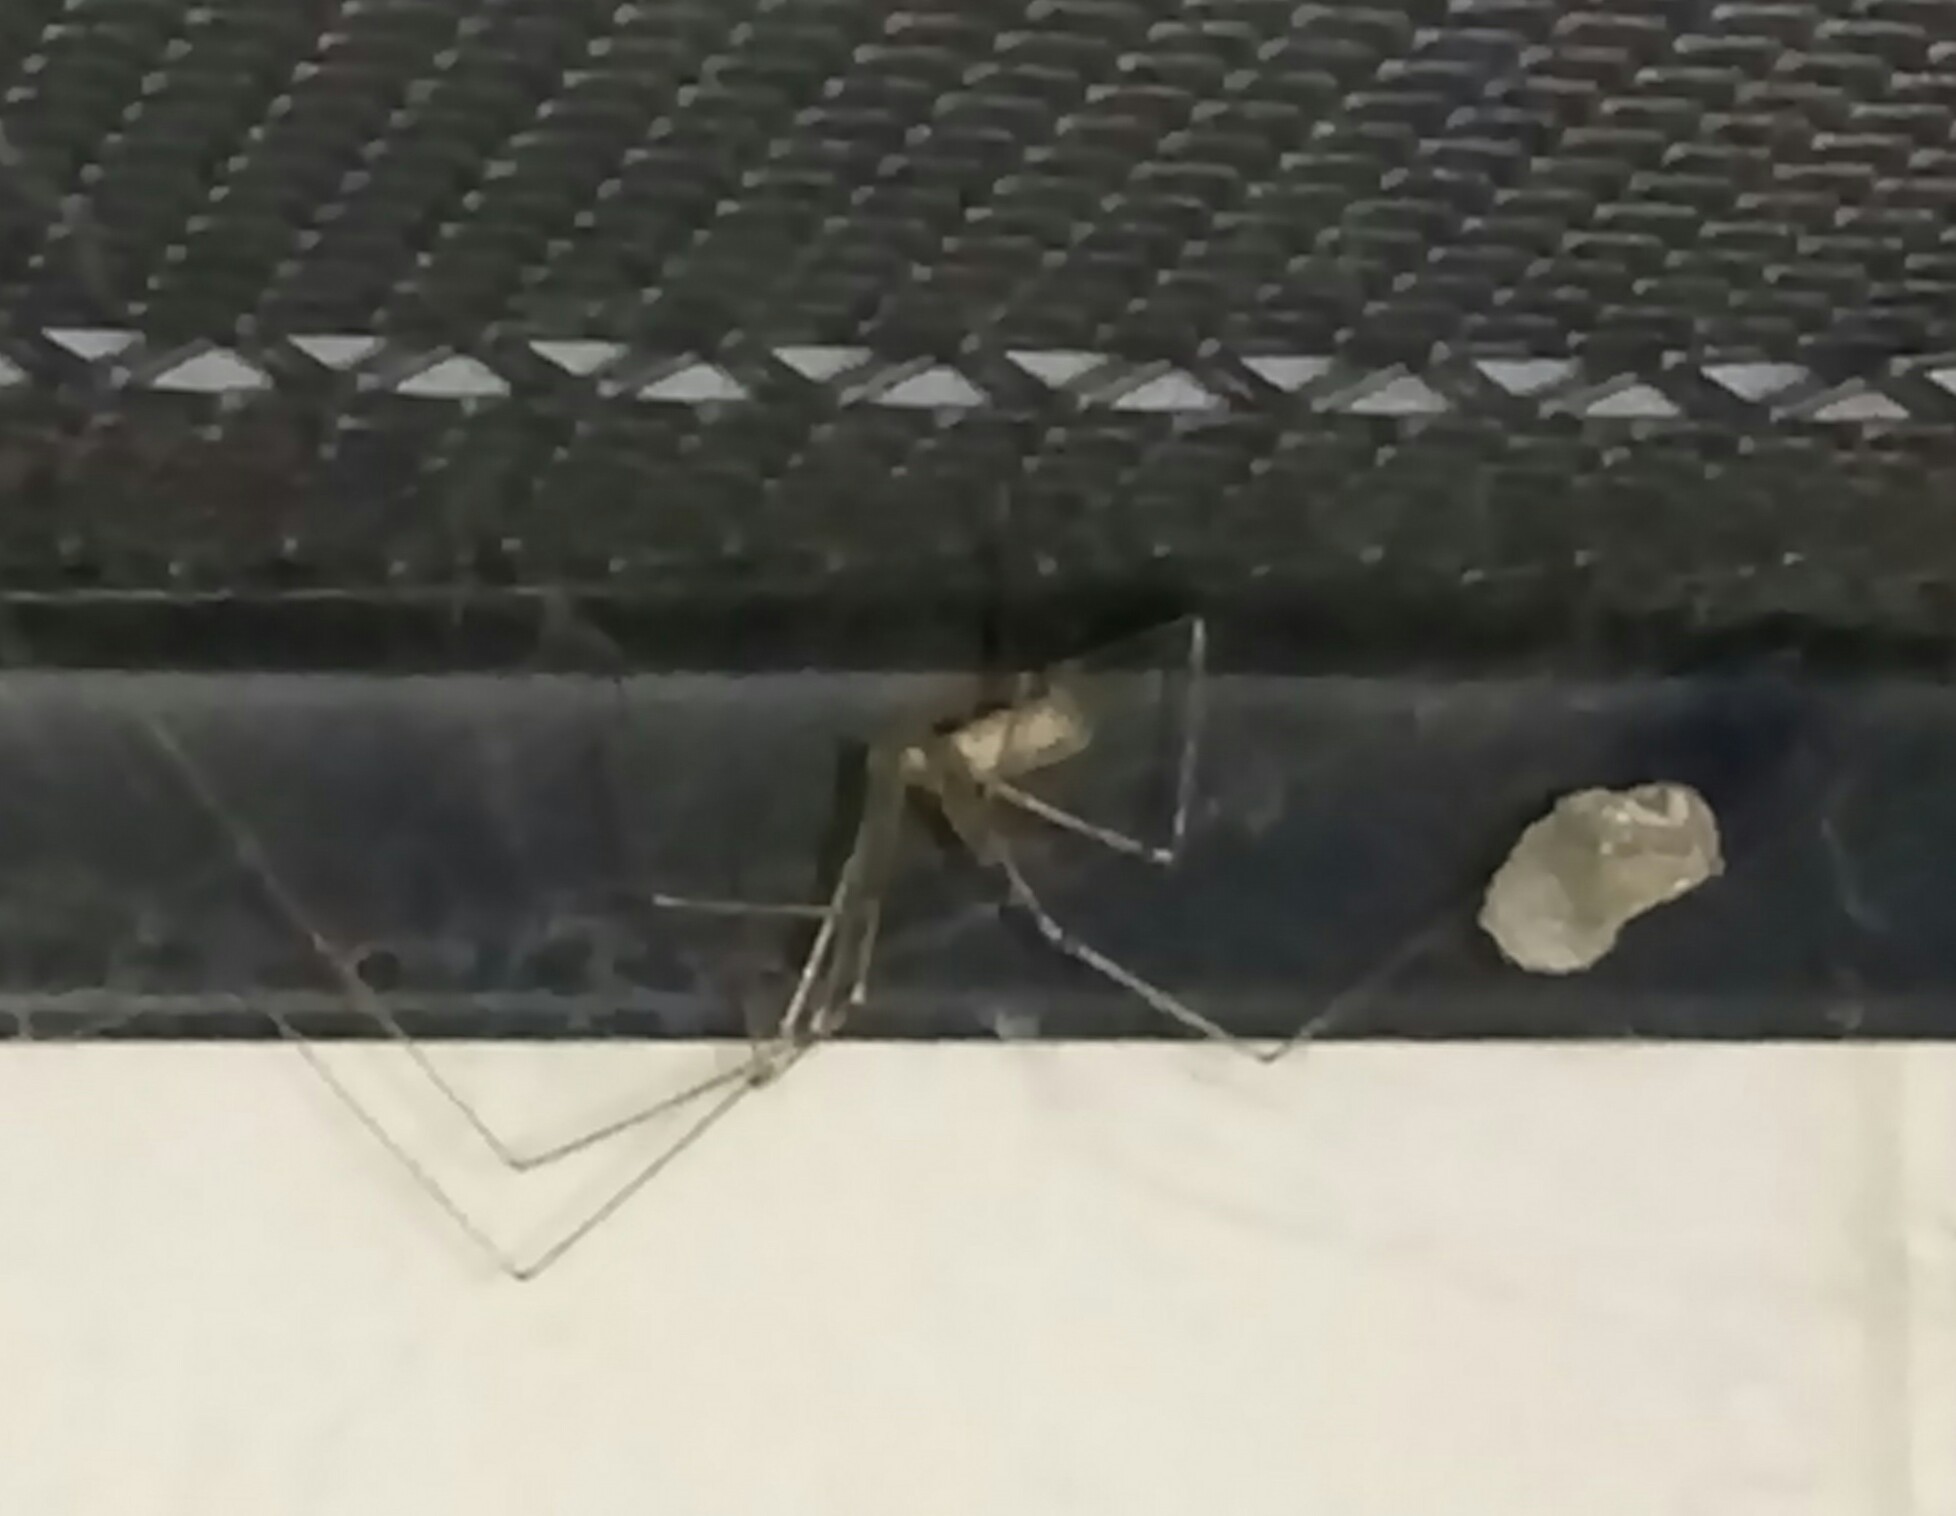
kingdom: Animalia
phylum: Arthropoda
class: Arachnida
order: Araneae
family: Pholcidae
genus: Pholcus
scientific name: Pholcus phalangioides
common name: Longbodied cellar spider
